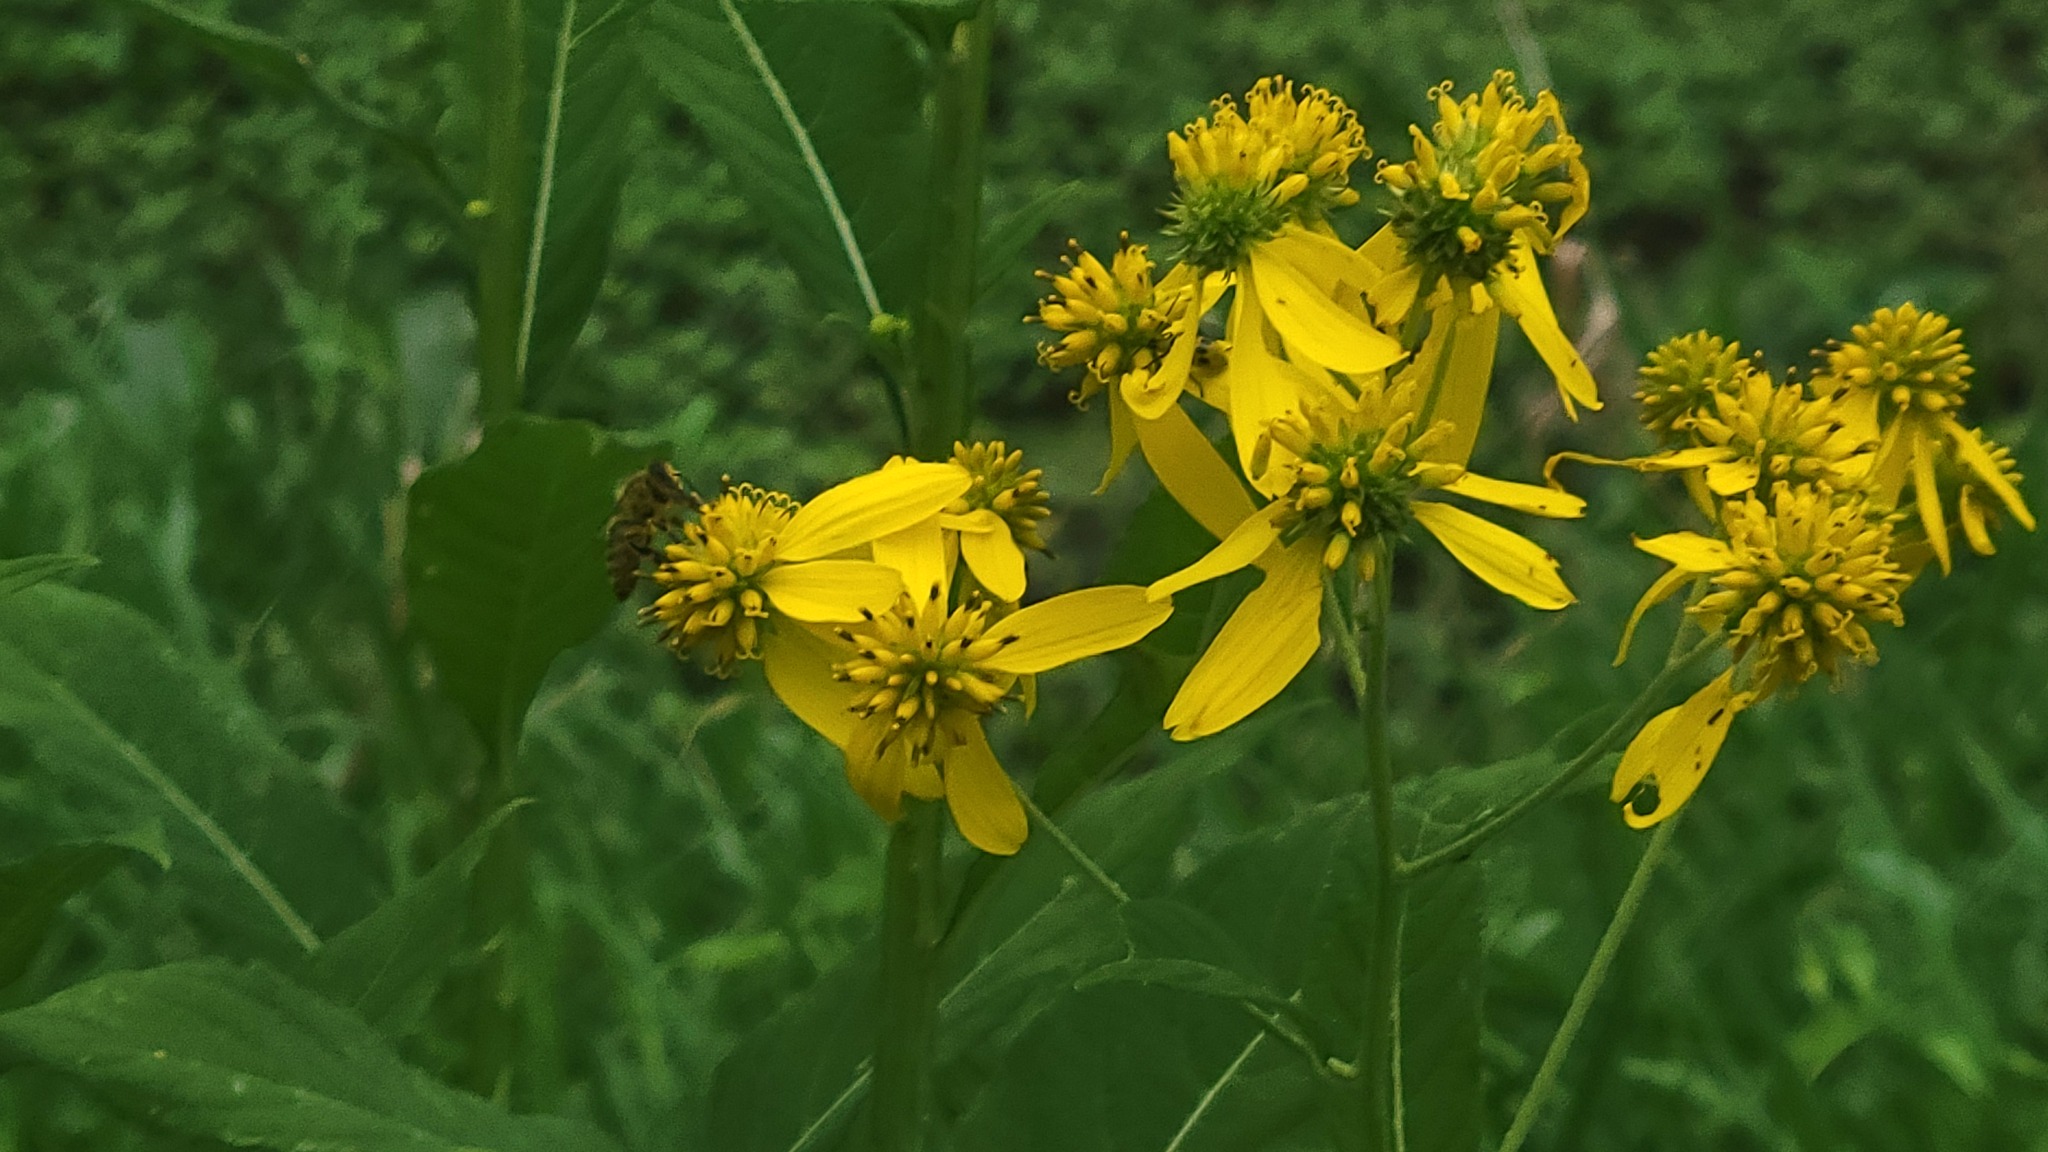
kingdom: Plantae
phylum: Tracheophyta
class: Magnoliopsida
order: Asterales
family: Asteraceae
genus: Verbesina
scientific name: Verbesina alternifolia
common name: Wingstem
